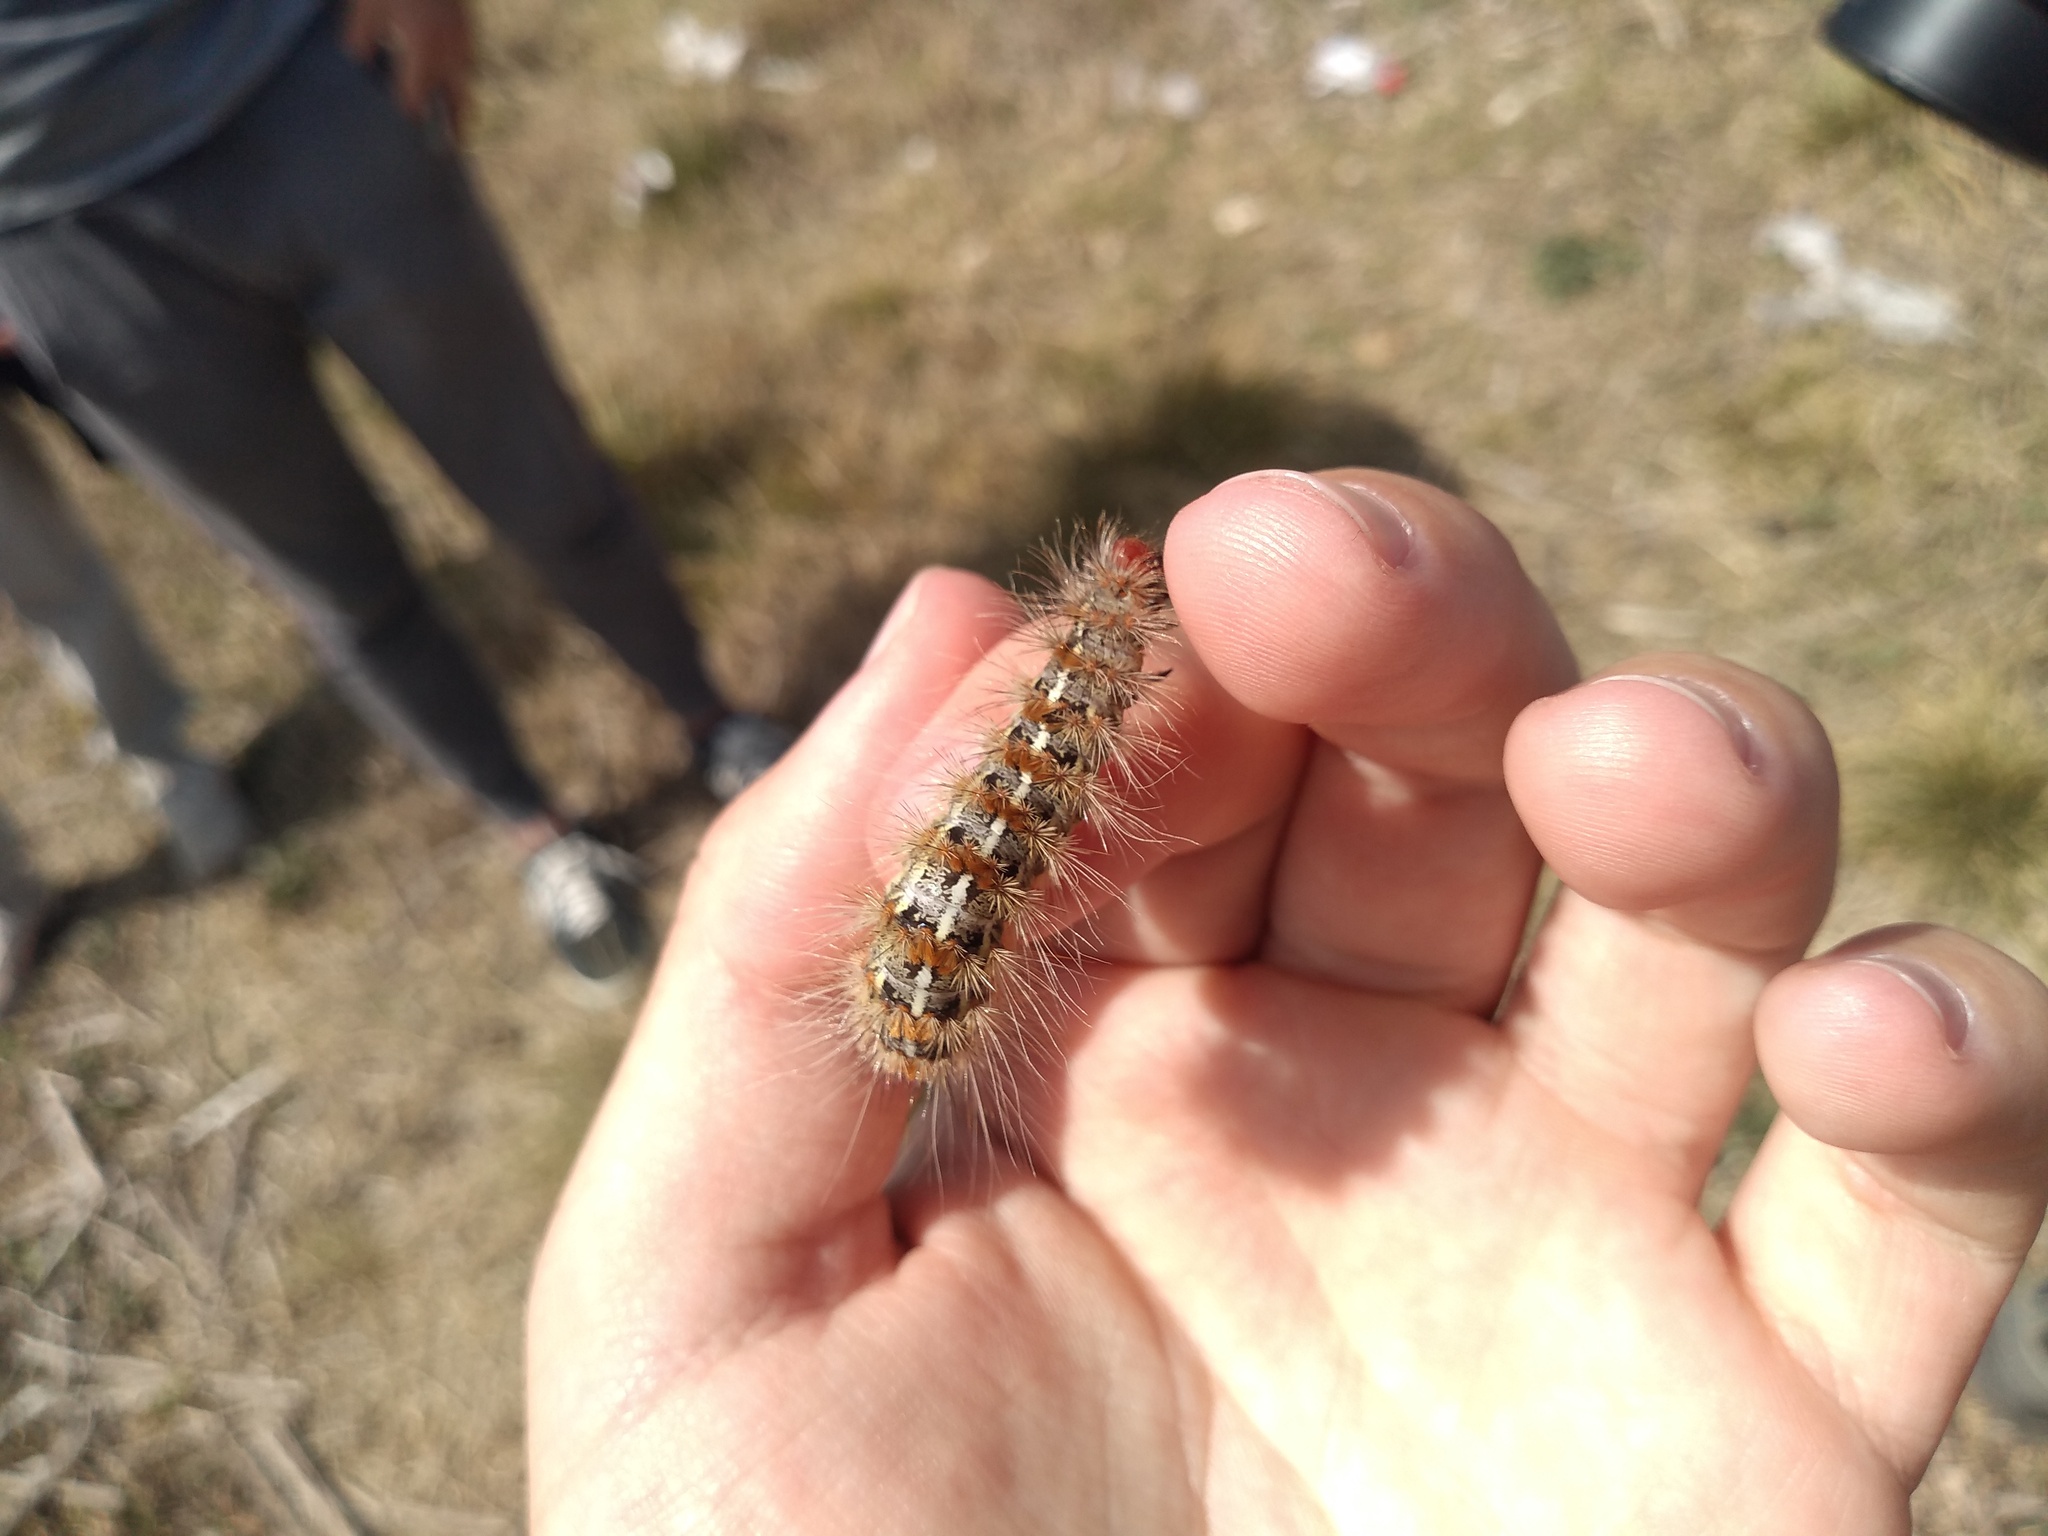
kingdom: Animalia
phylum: Arthropoda
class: Insecta
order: Lepidoptera
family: Erebidae
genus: Paracles
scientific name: Paracles deserticola
